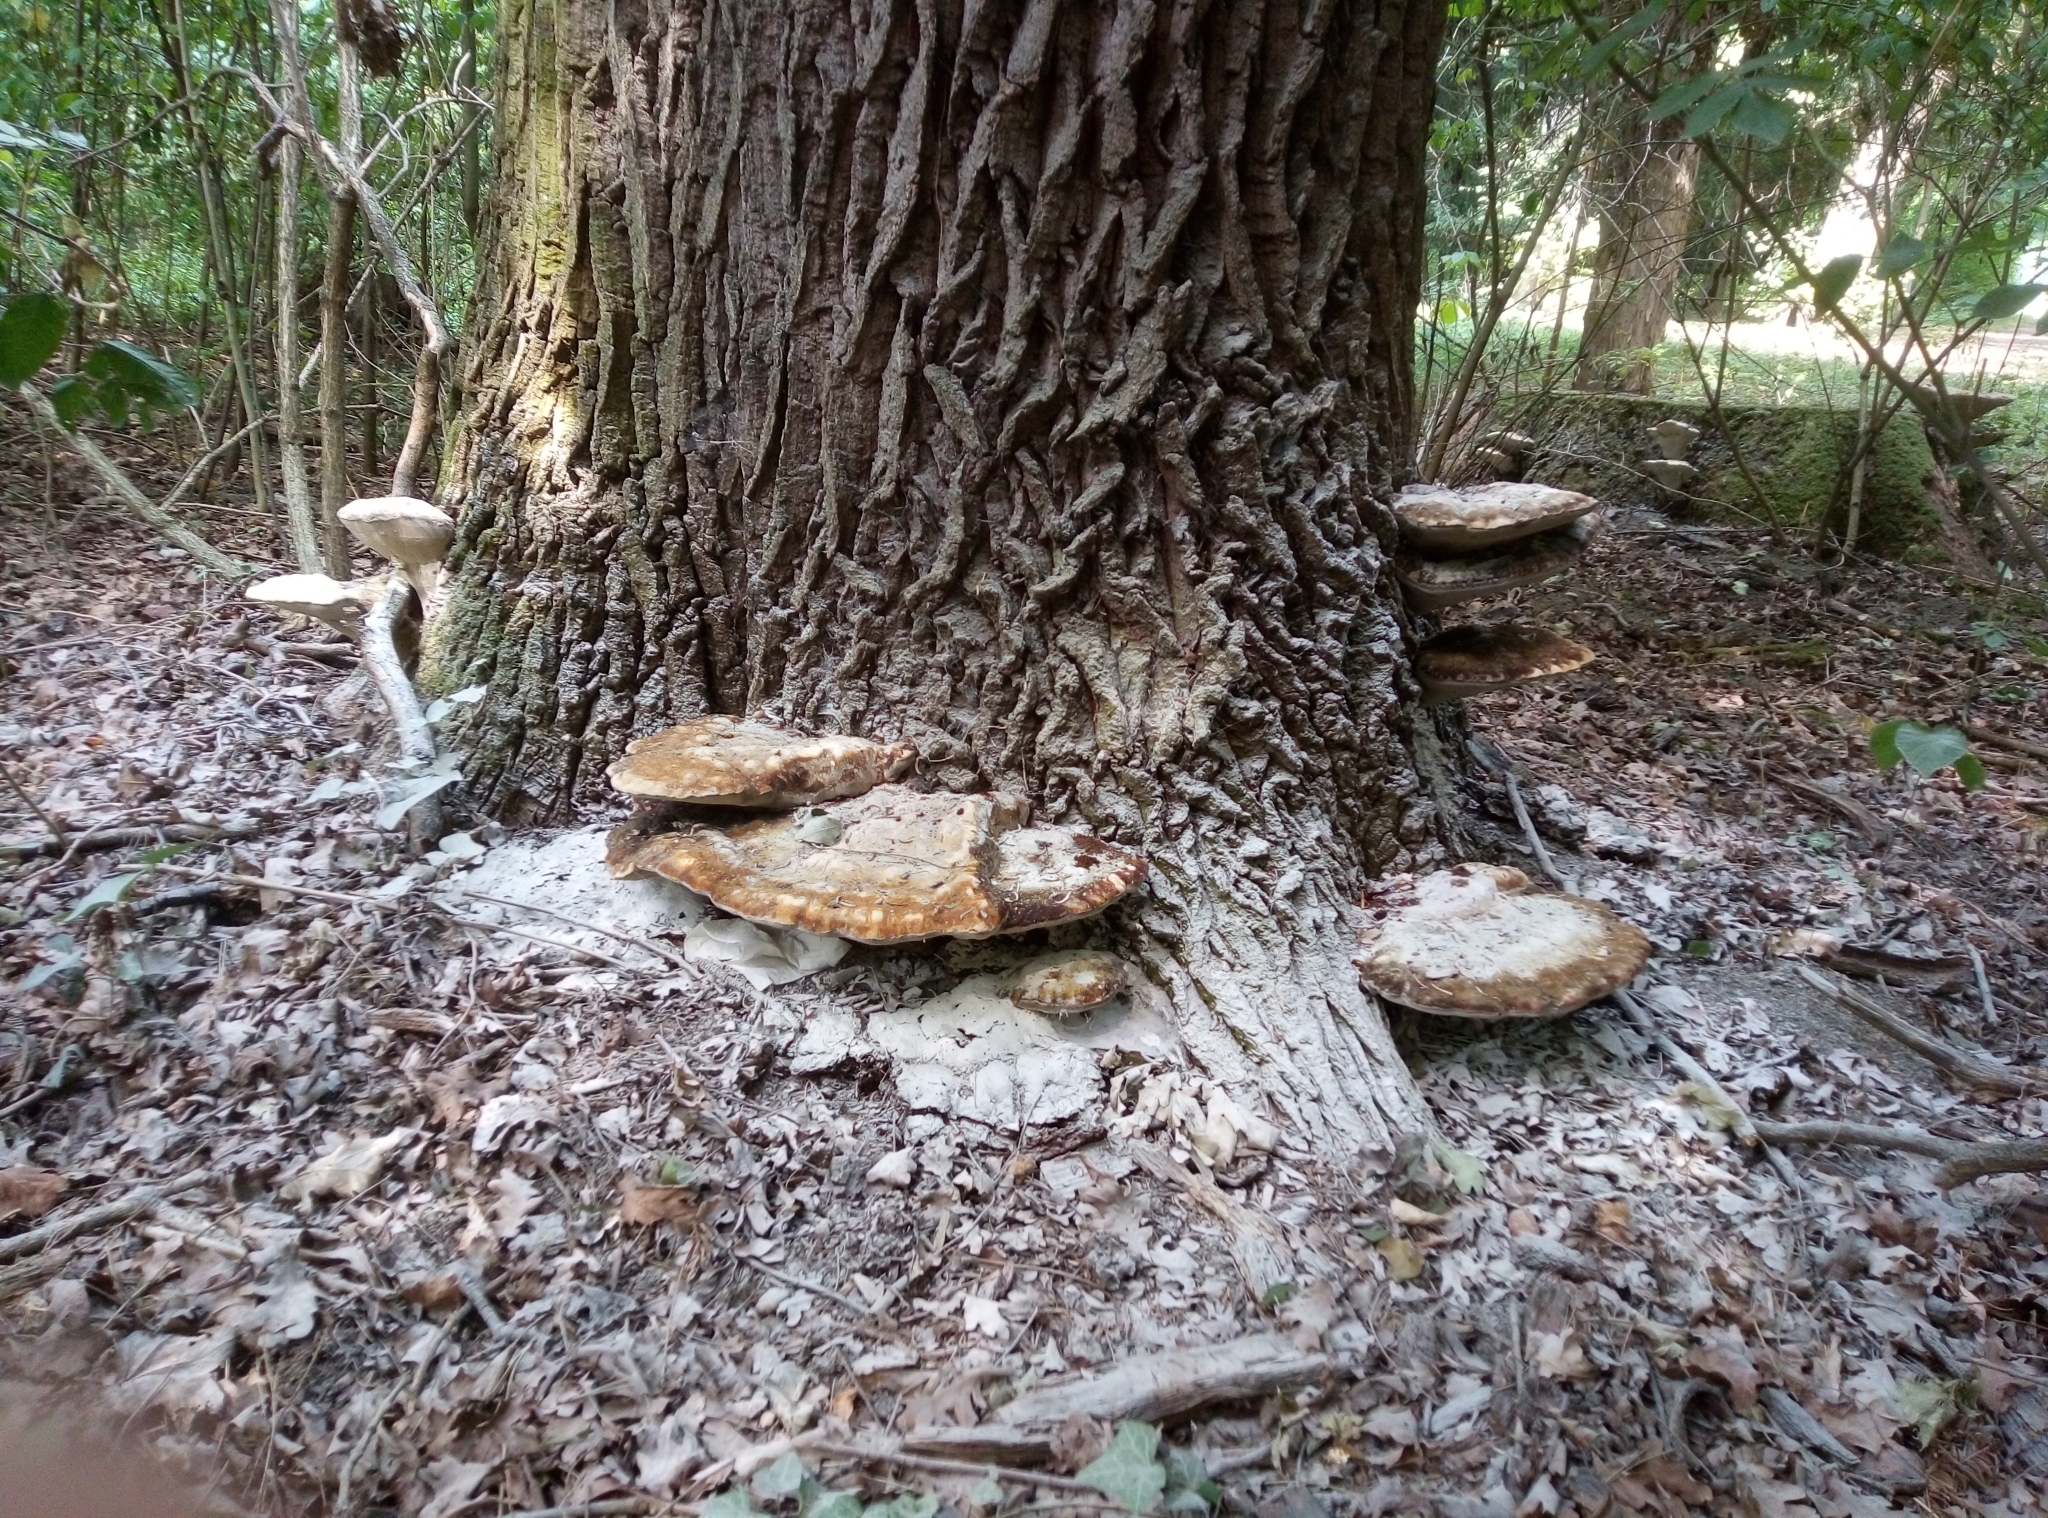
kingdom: Fungi
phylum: Basidiomycota
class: Agaricomycetes
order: Hymenochaetales
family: Hymenochaetaceae
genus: Fuscoporia
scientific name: Fuscoporia torulosa
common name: Tufted bracket
